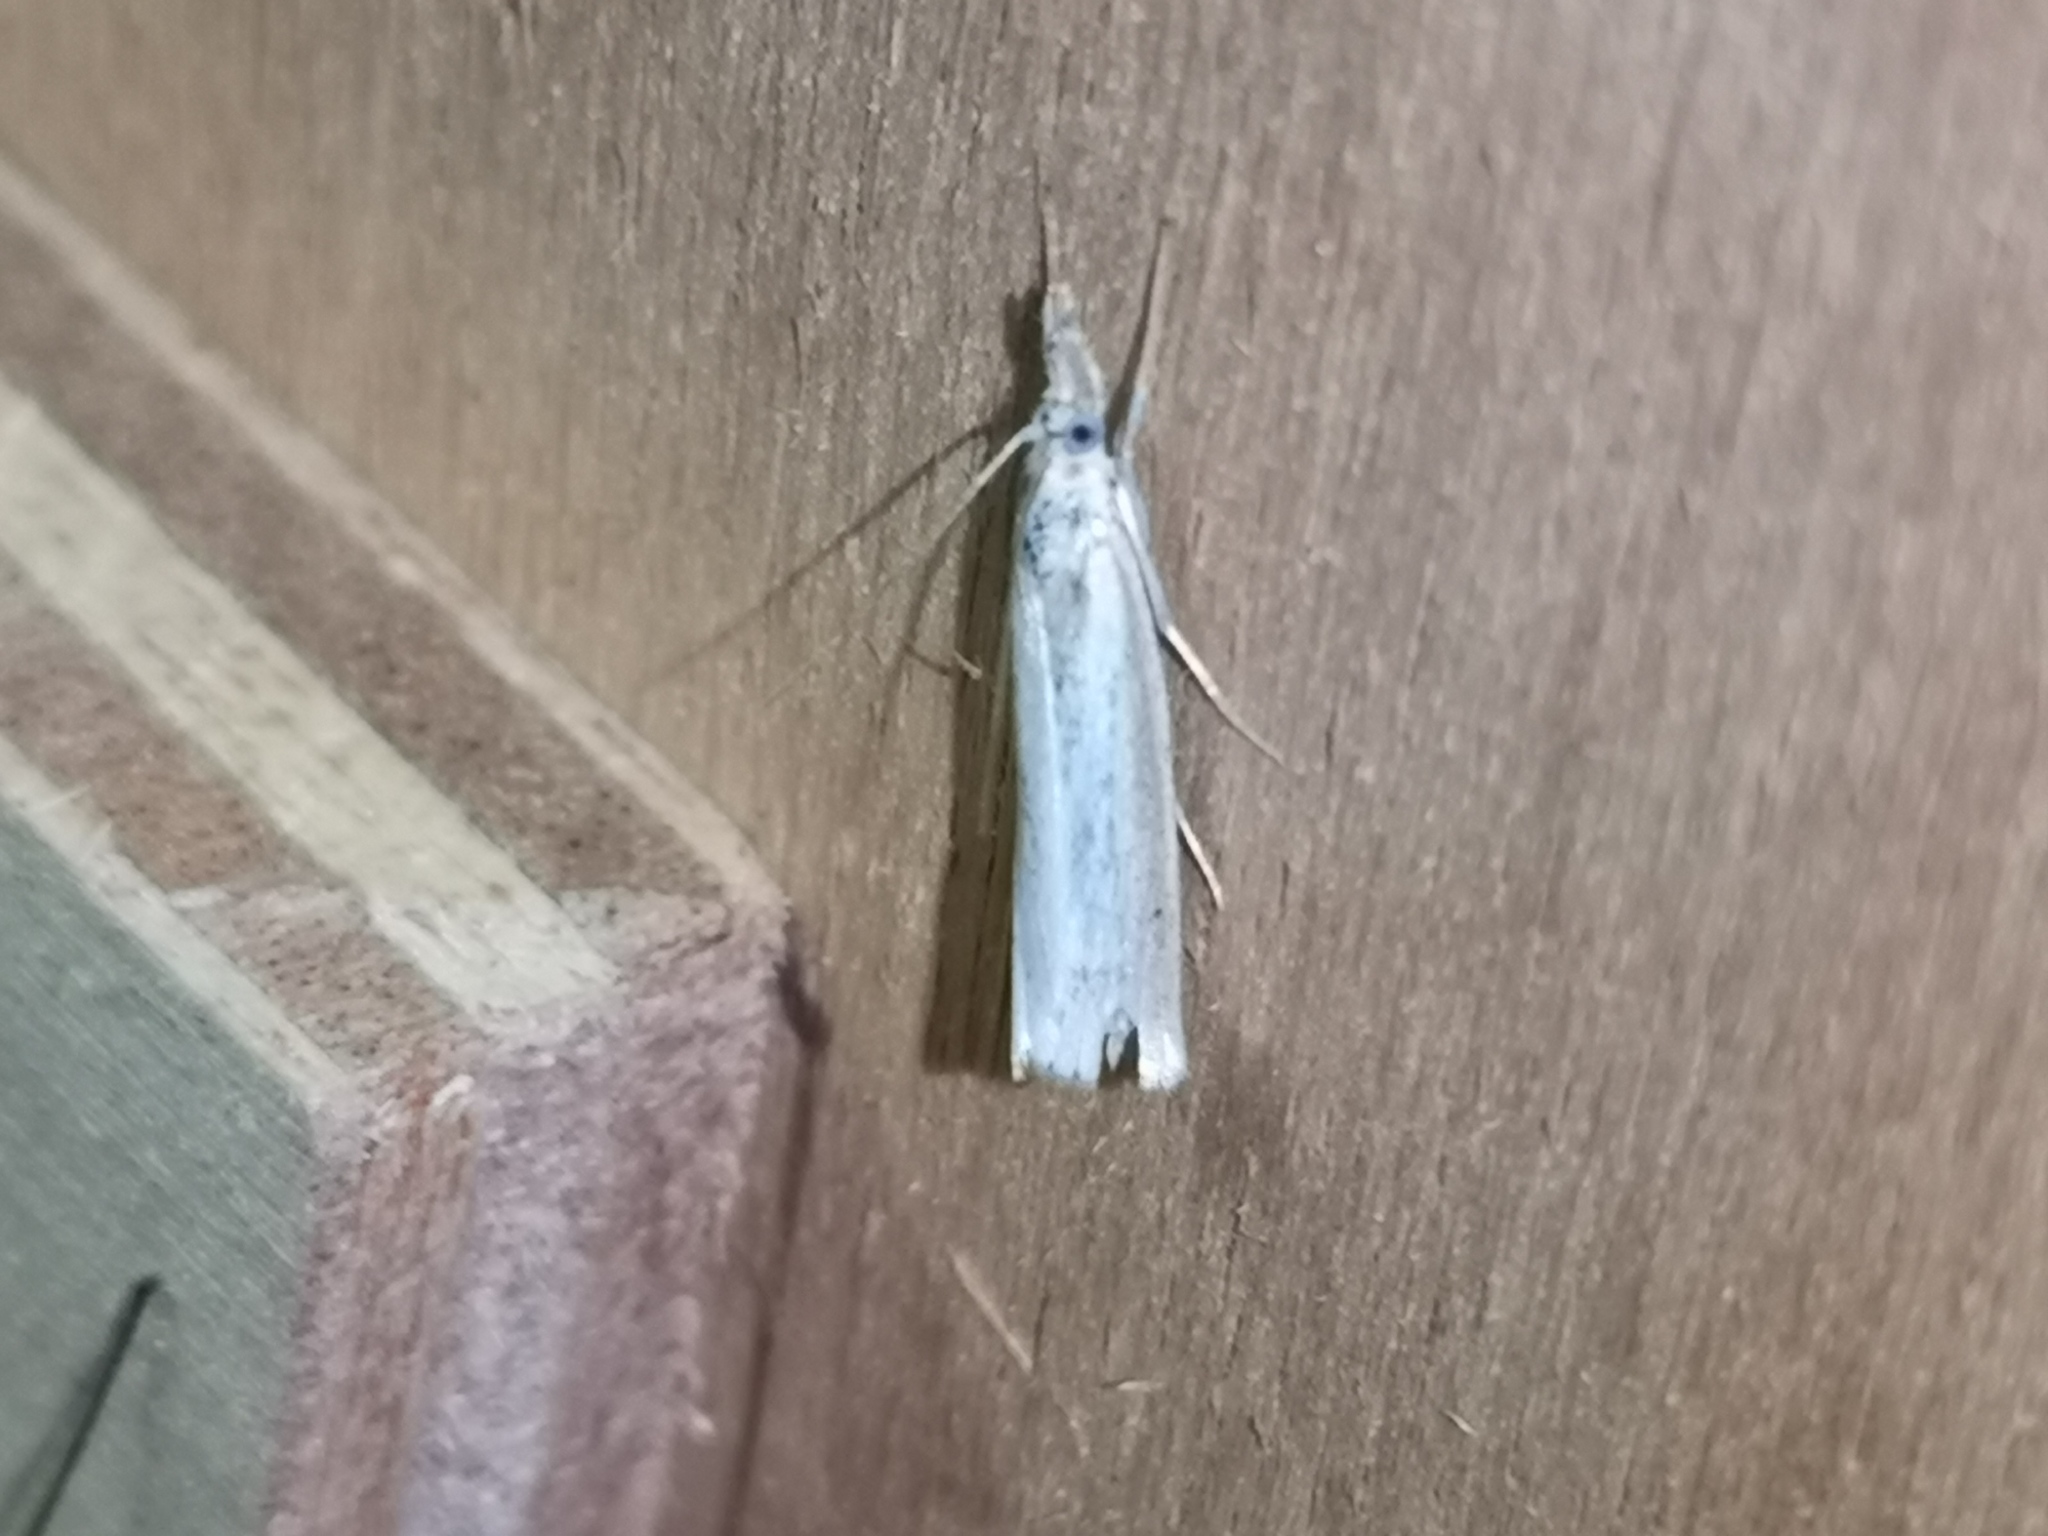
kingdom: Animalia
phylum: Arthropoda
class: Insecta
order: Lepidoptera
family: Crambidae
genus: Agriphila
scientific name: Agriphila straminella
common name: Straw grass-veneer
